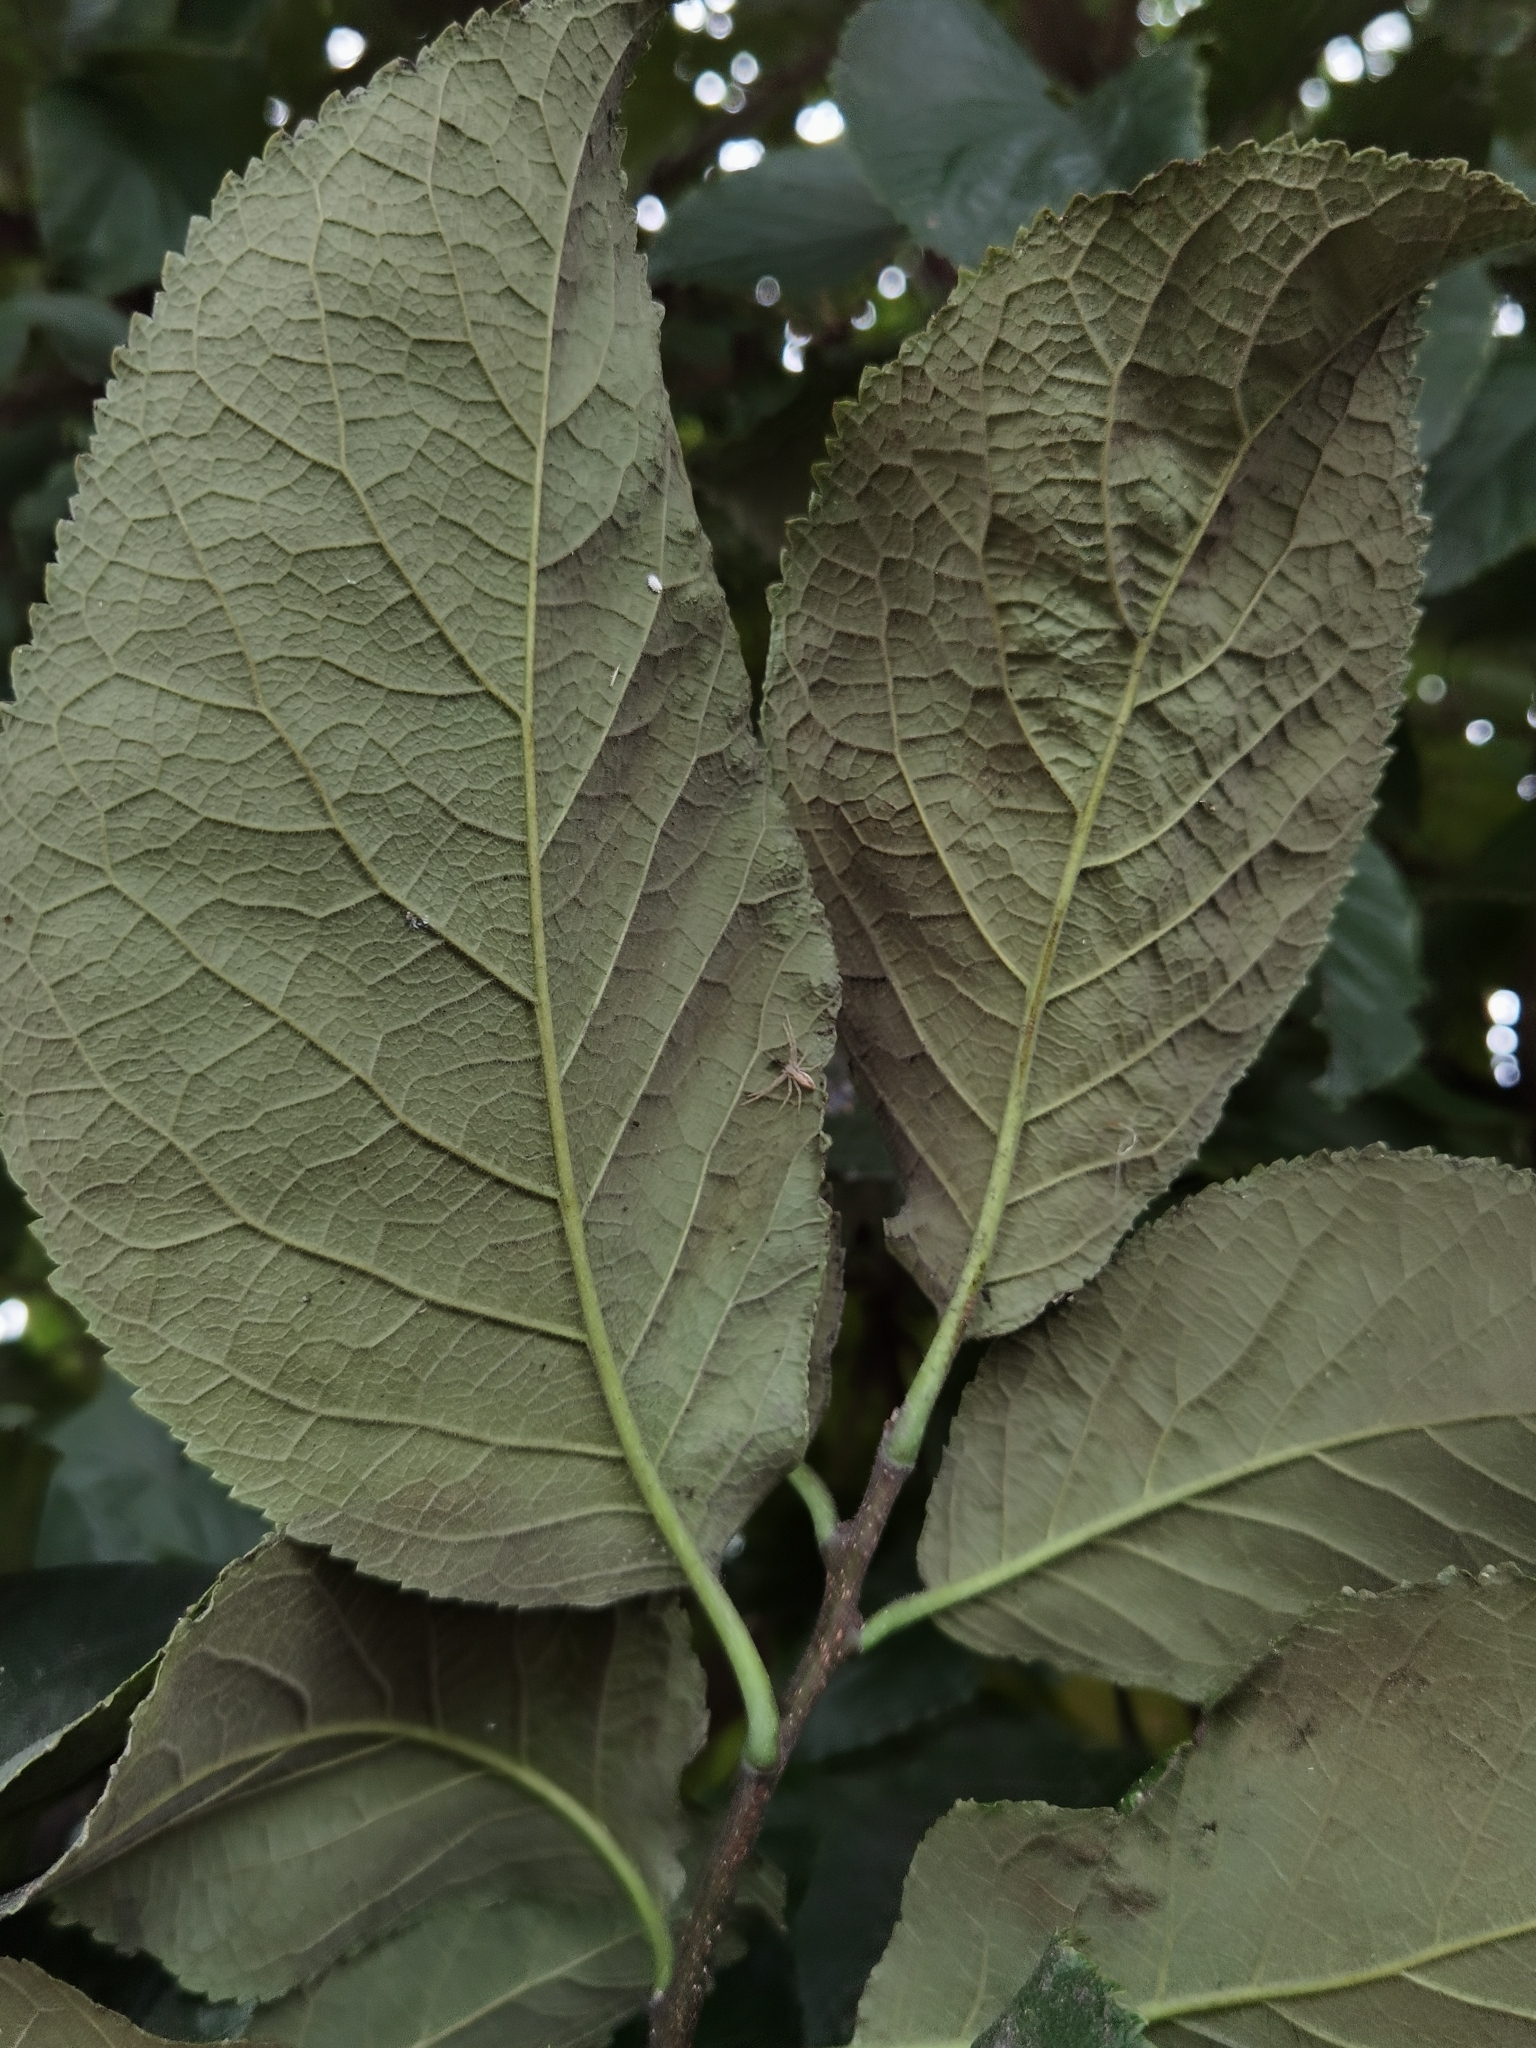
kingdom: Plantae
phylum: Tracheophyta
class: Magnoliopsida
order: Boraginales
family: Ehretiaceae
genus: Ehretia
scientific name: Ehretia latifolia
